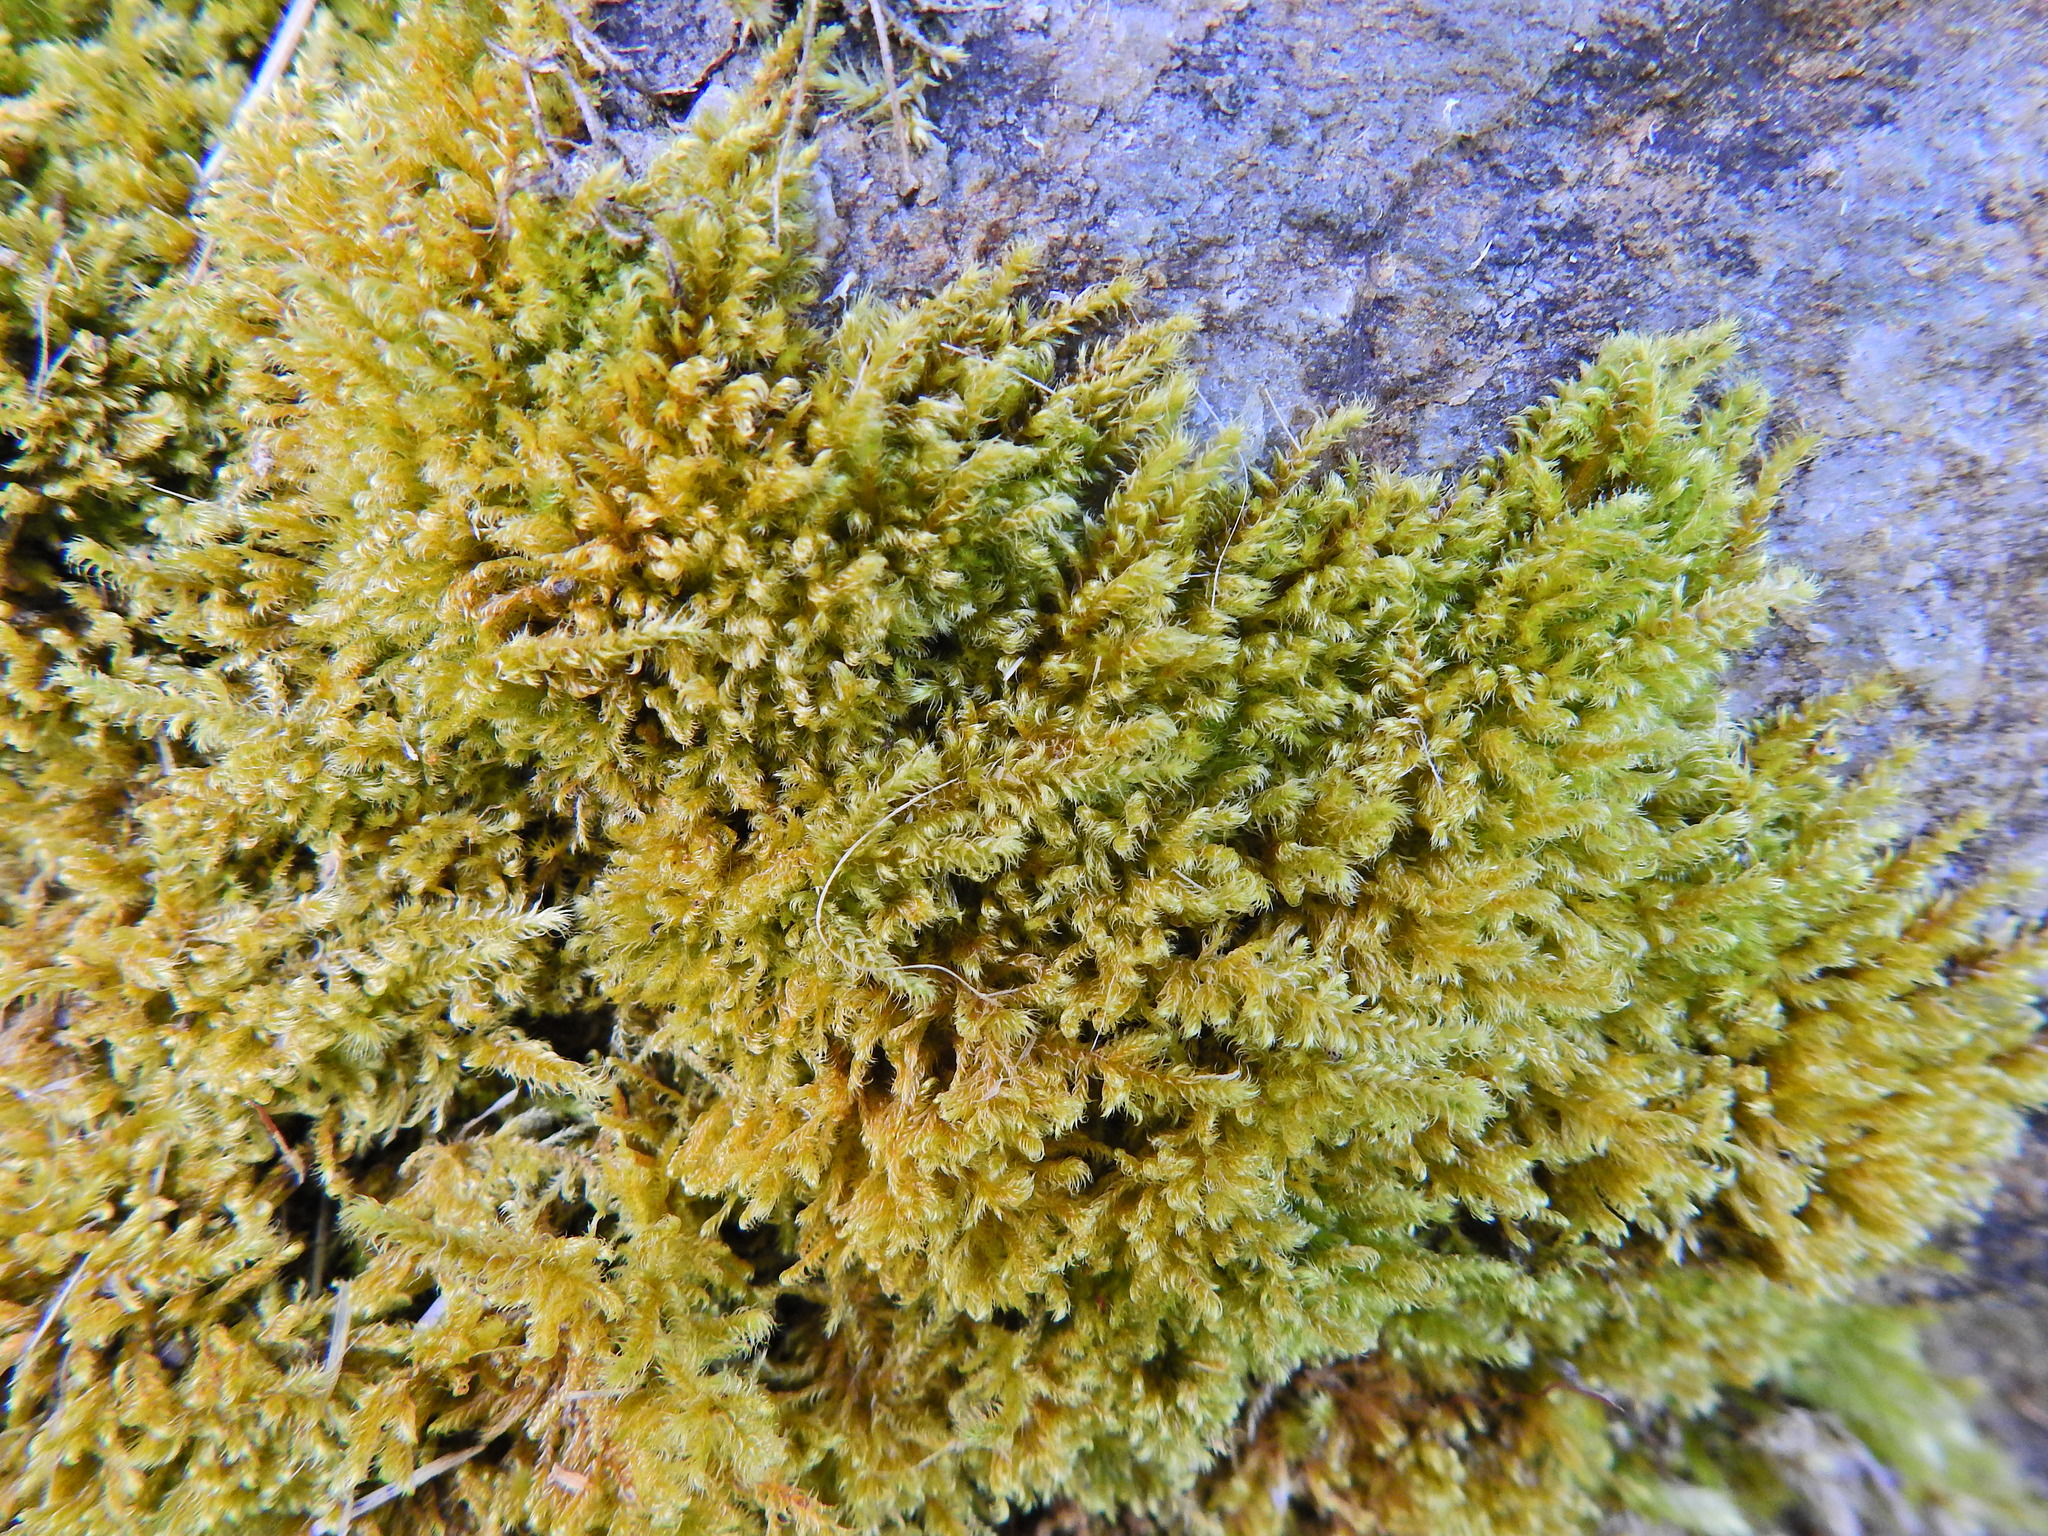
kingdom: Plantae
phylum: Bryophyta
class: Bryopsida
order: Hypnales
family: Myuriaceae
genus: Ctenidium
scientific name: Ctenidium molluscum
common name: Chalk comb-moss
